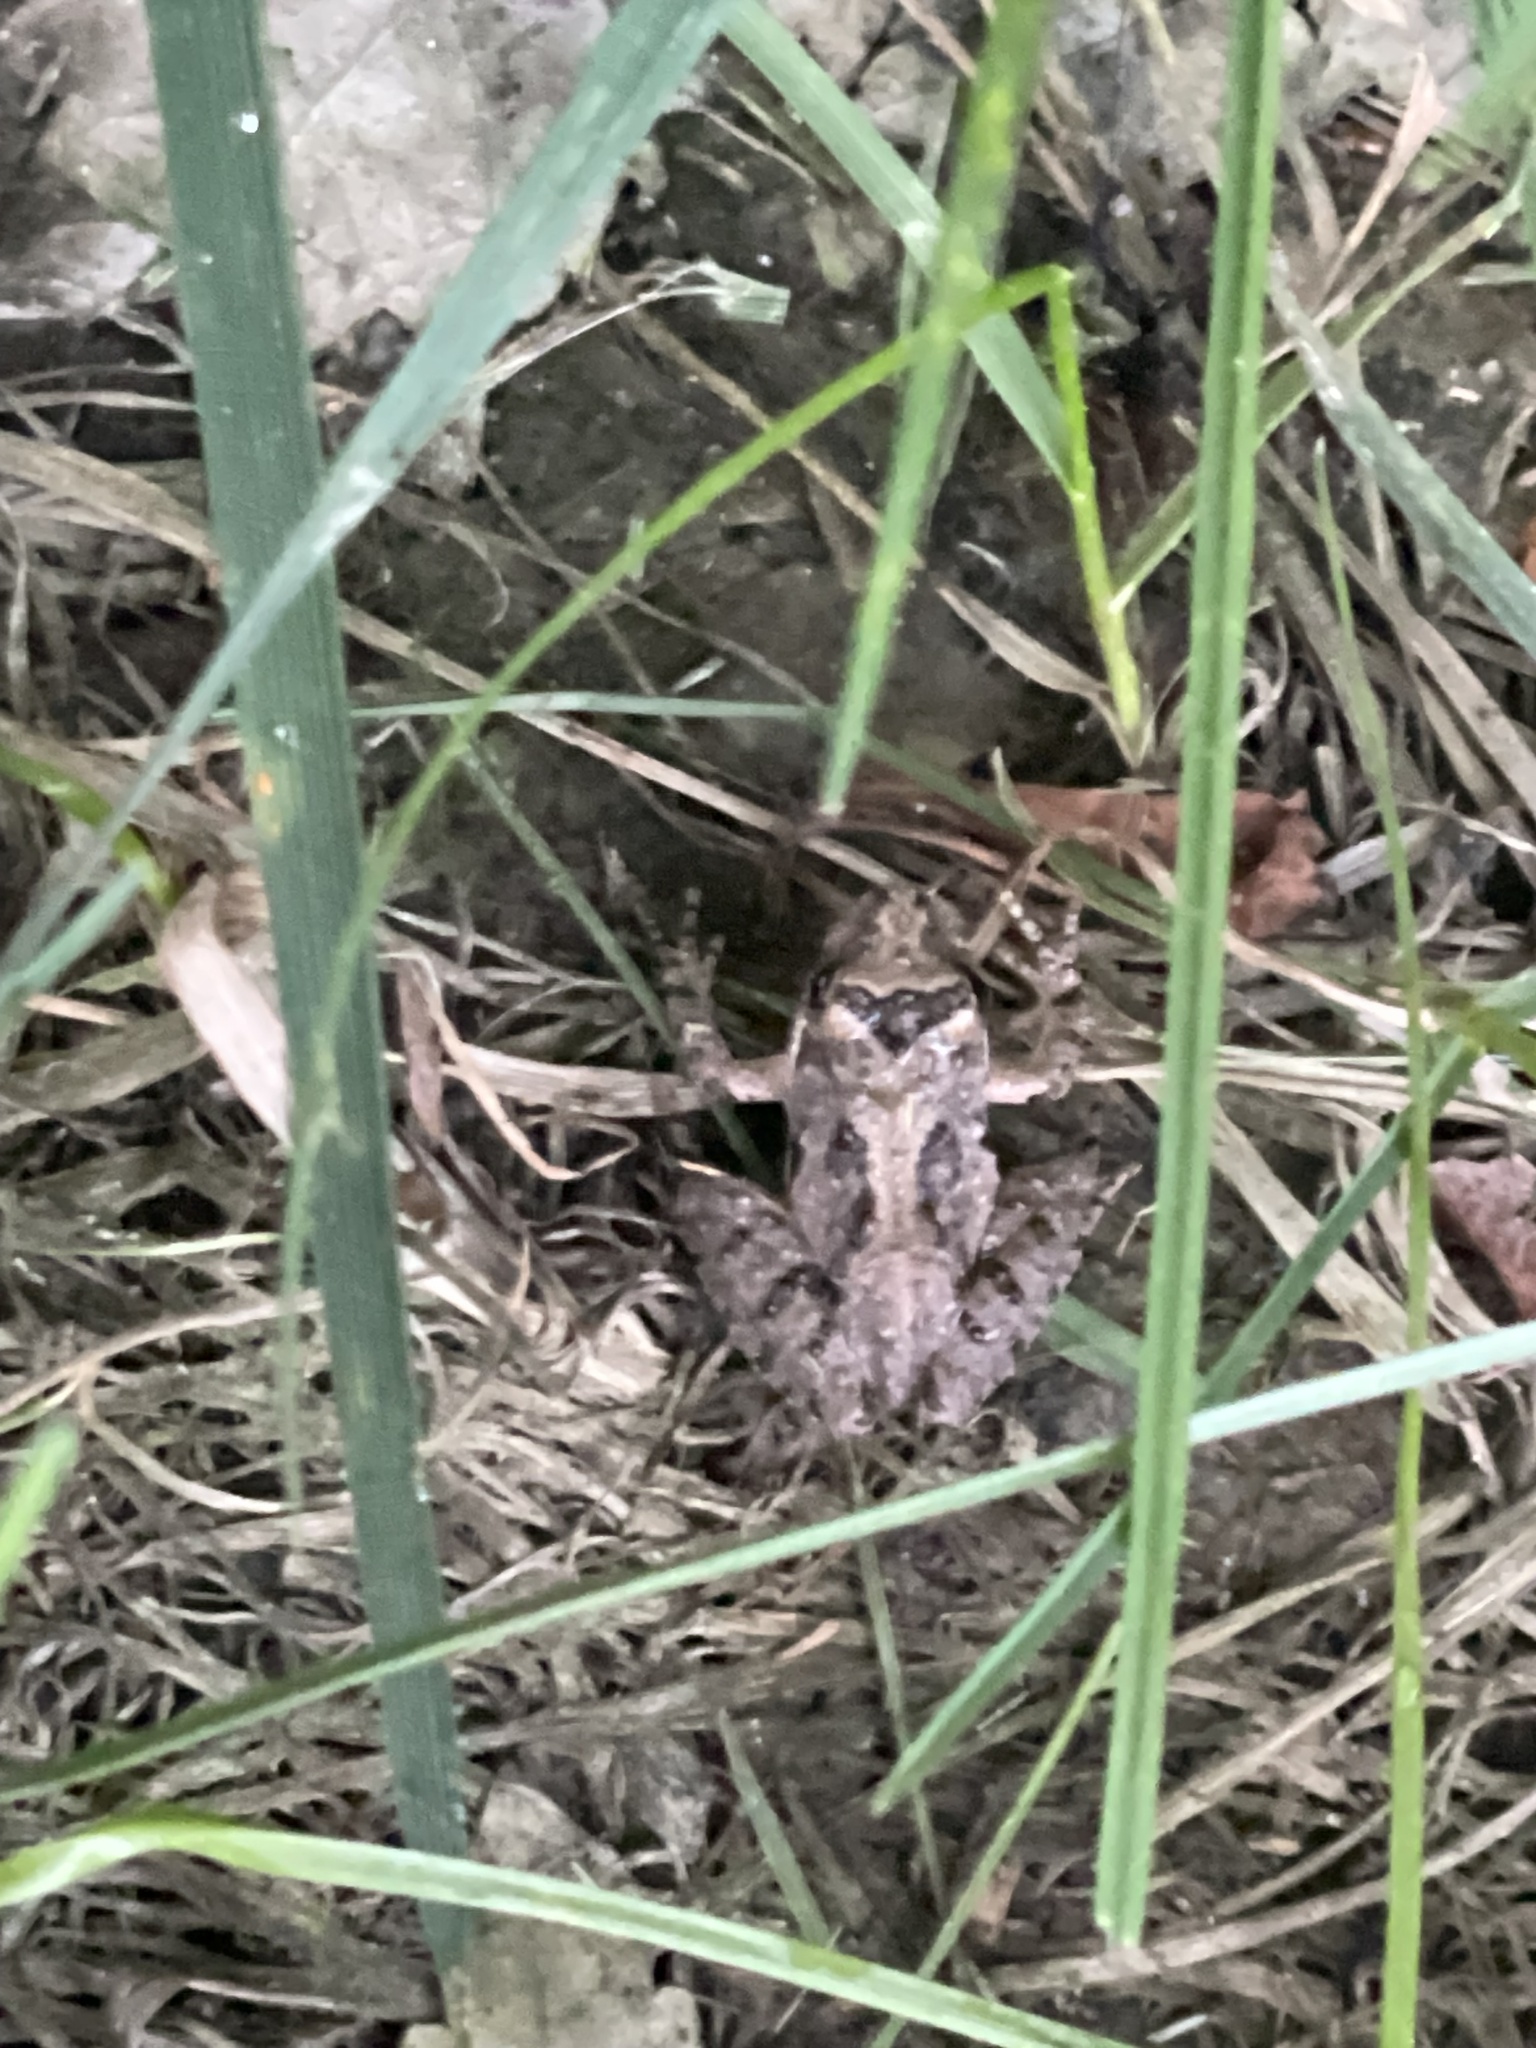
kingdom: Animalia
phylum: Chordata
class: Amphibia
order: Anura
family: Hylidae
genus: Acris
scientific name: Acris crepitans
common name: Northern cricket frog
